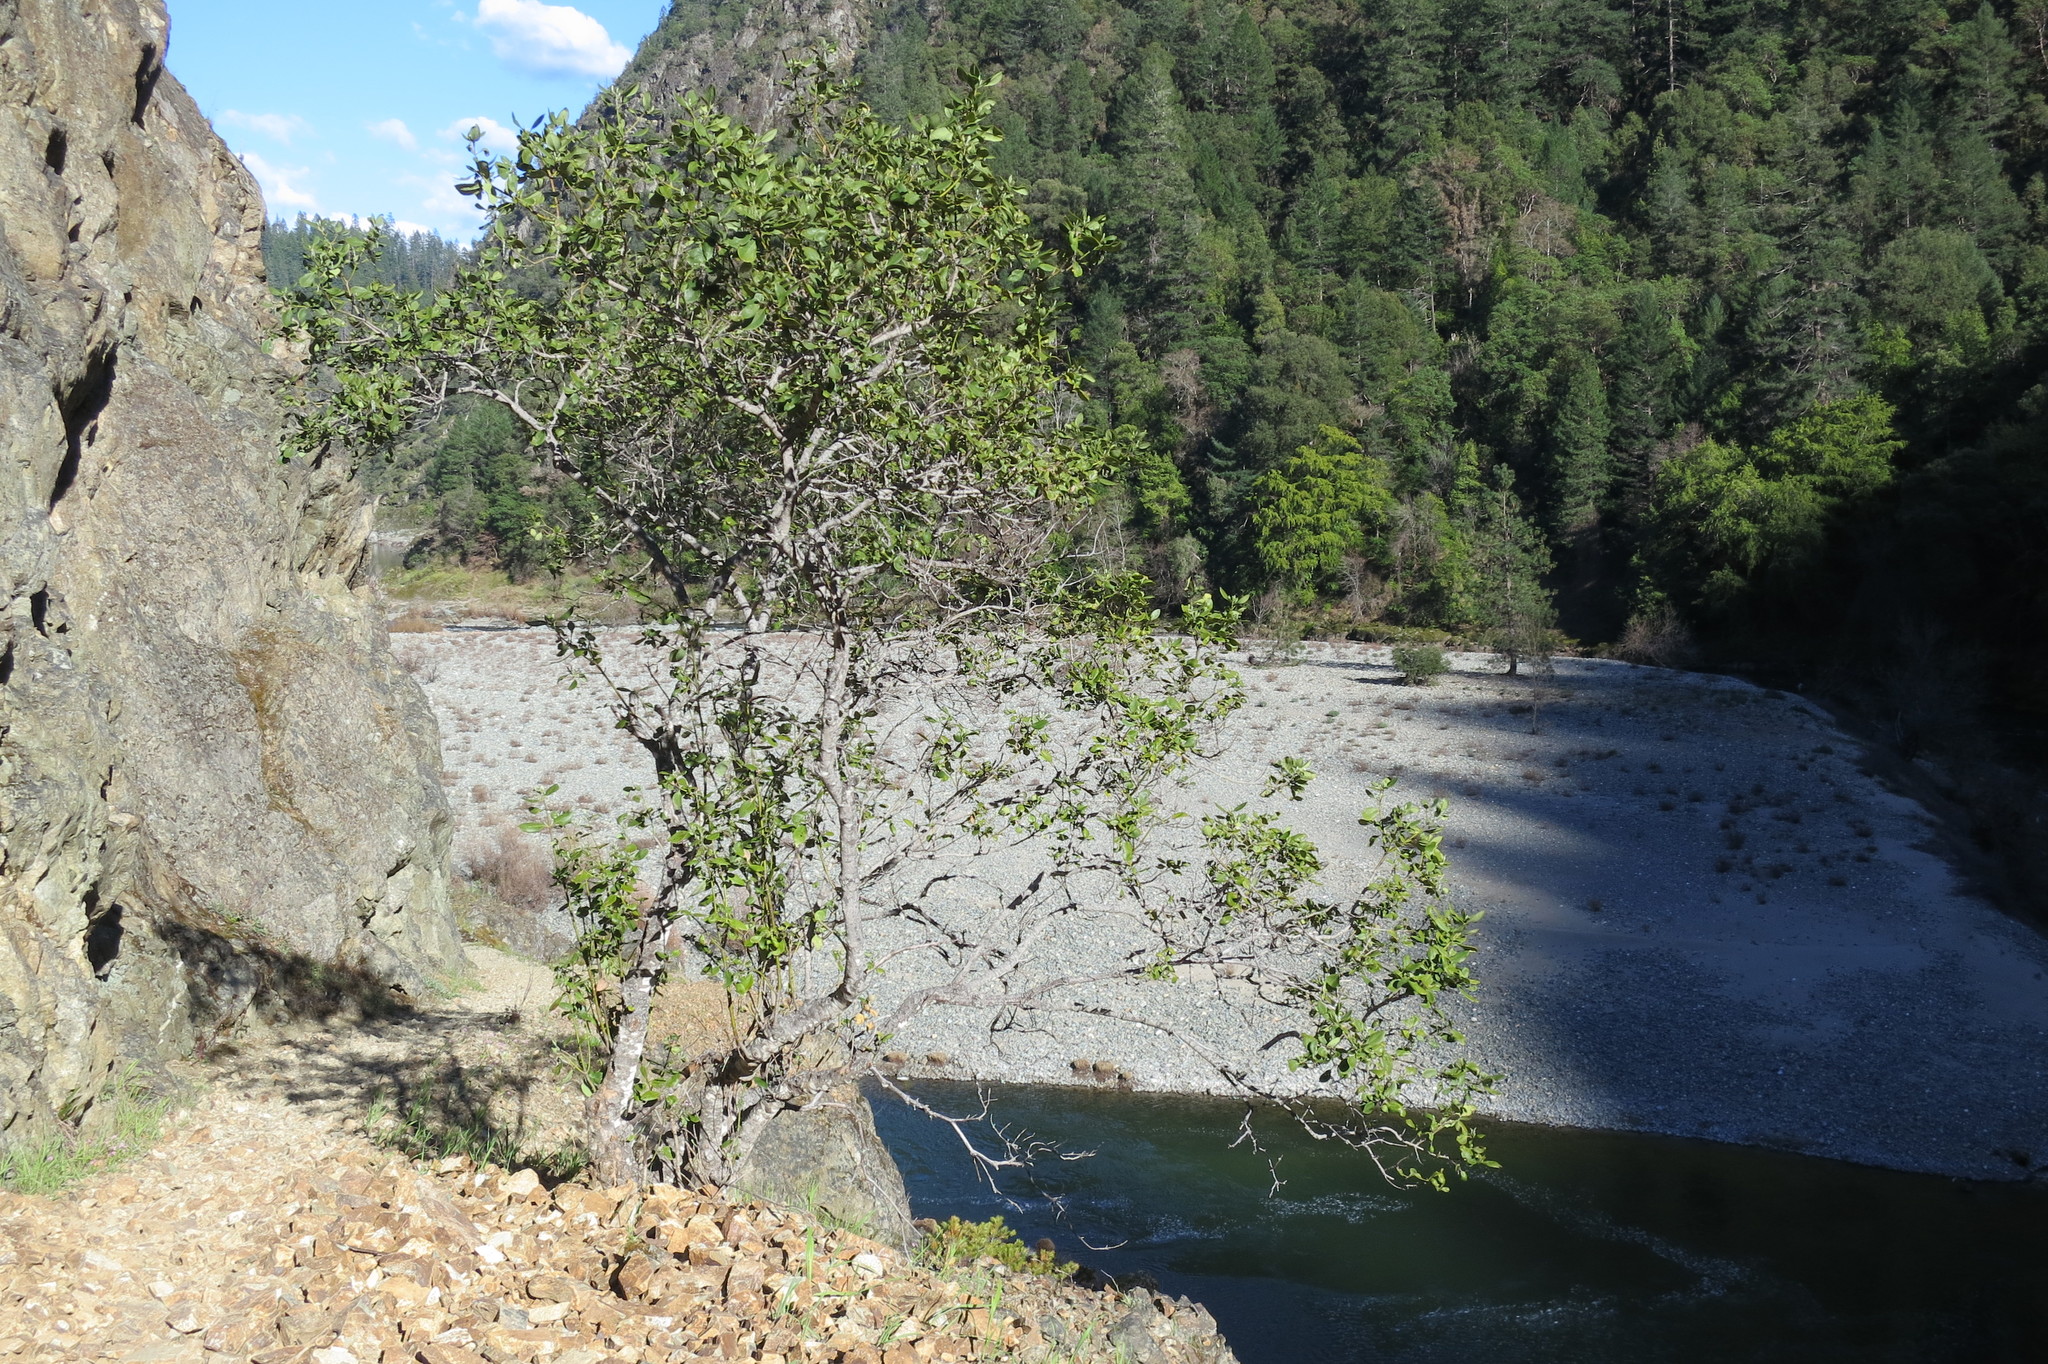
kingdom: Plantae
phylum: Tracheophyta
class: Magnoliopsida
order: Garryales
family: Garryaceae
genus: Garrya
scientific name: Garrya fremontii
